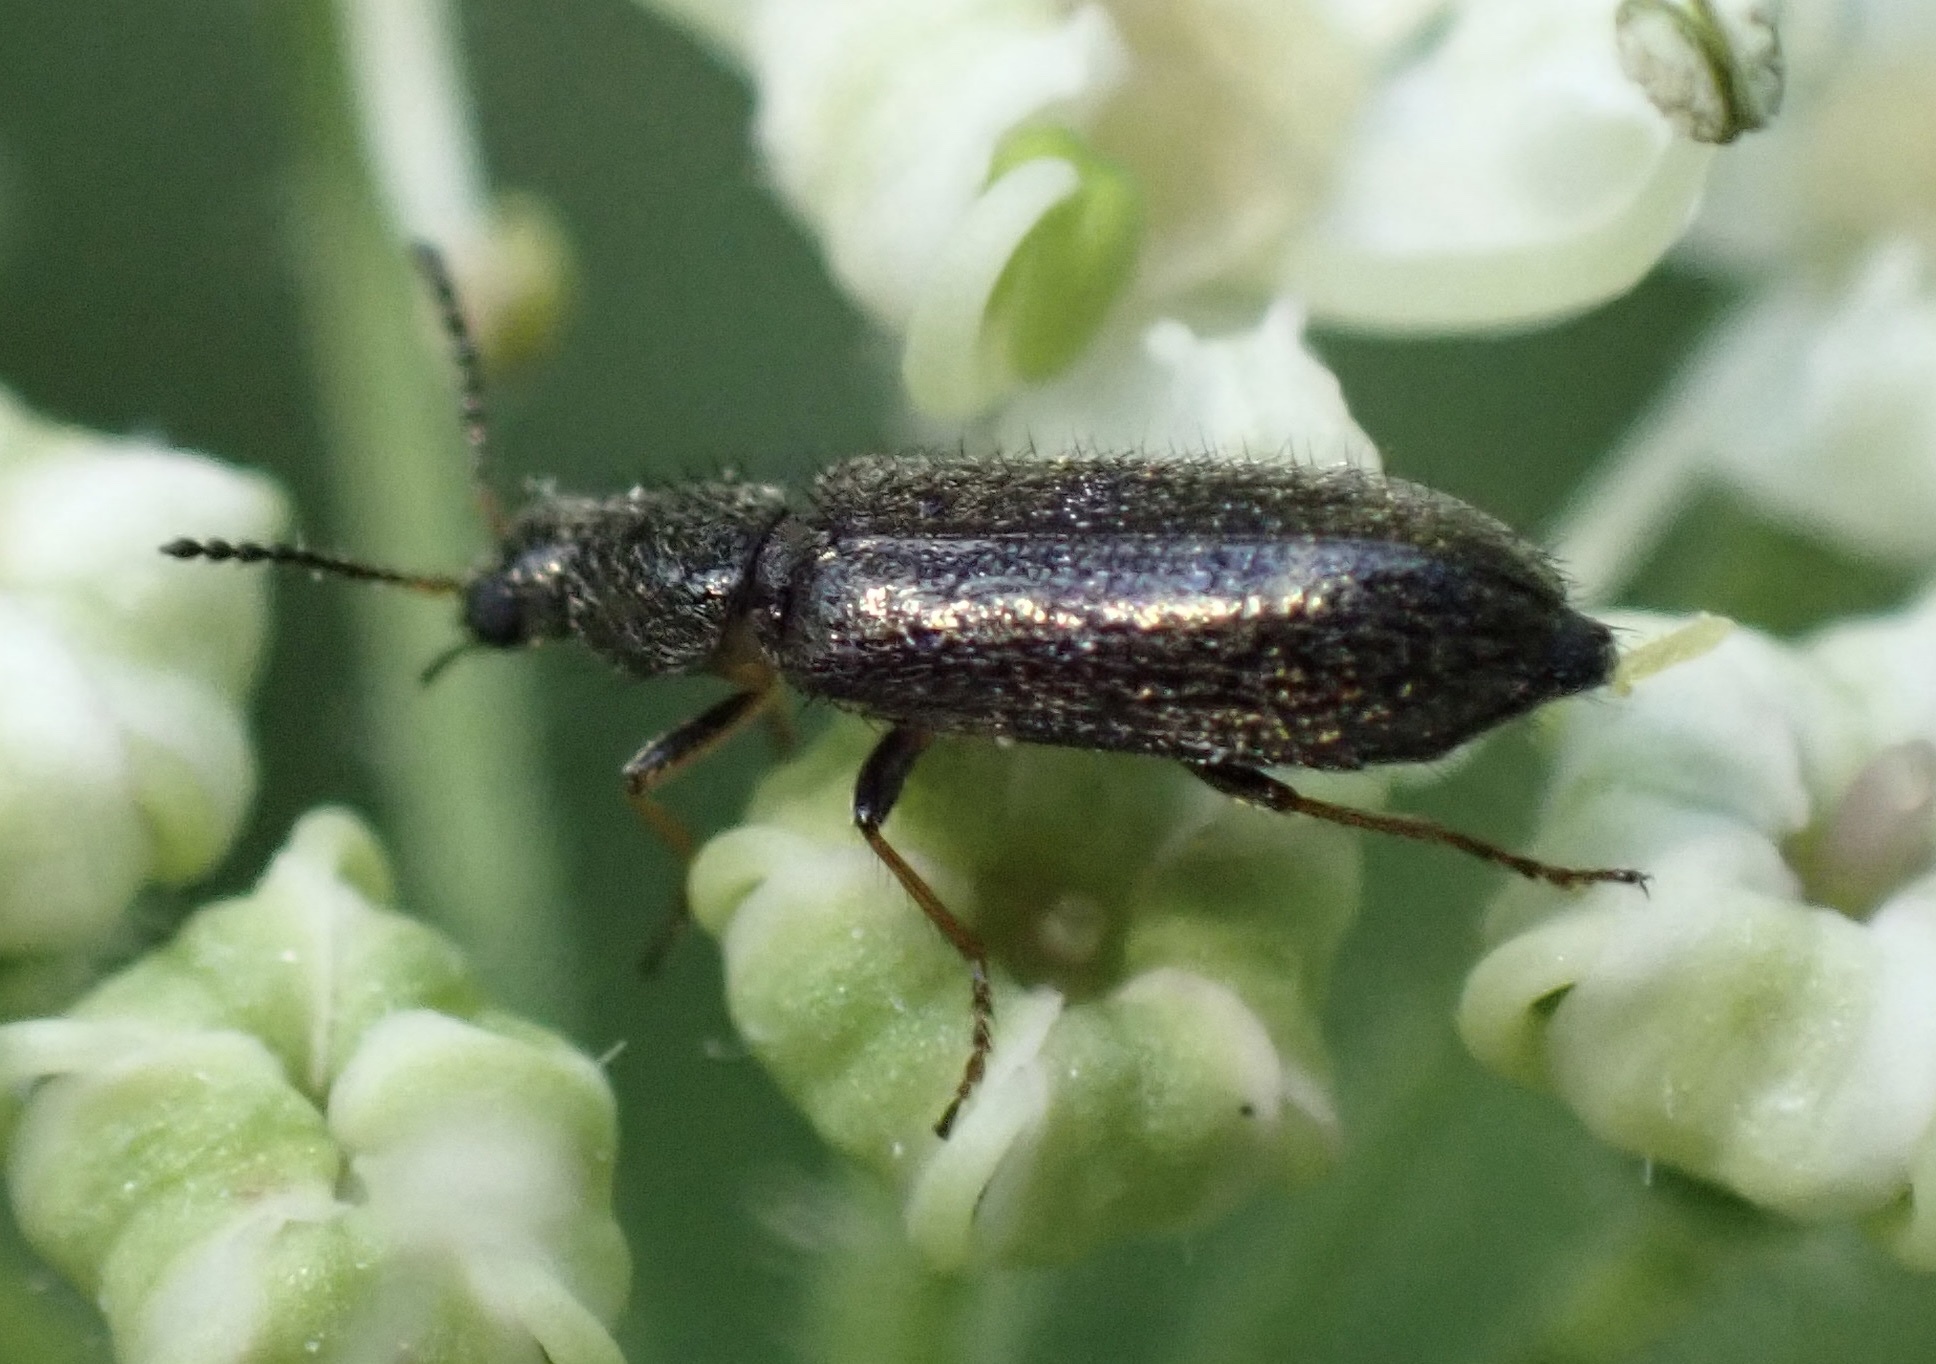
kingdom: Animalia
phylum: Arthropoda
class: Insecta
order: Coleoptera
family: Melyridae
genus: Dasytes
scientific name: Dasytes plumbeus
